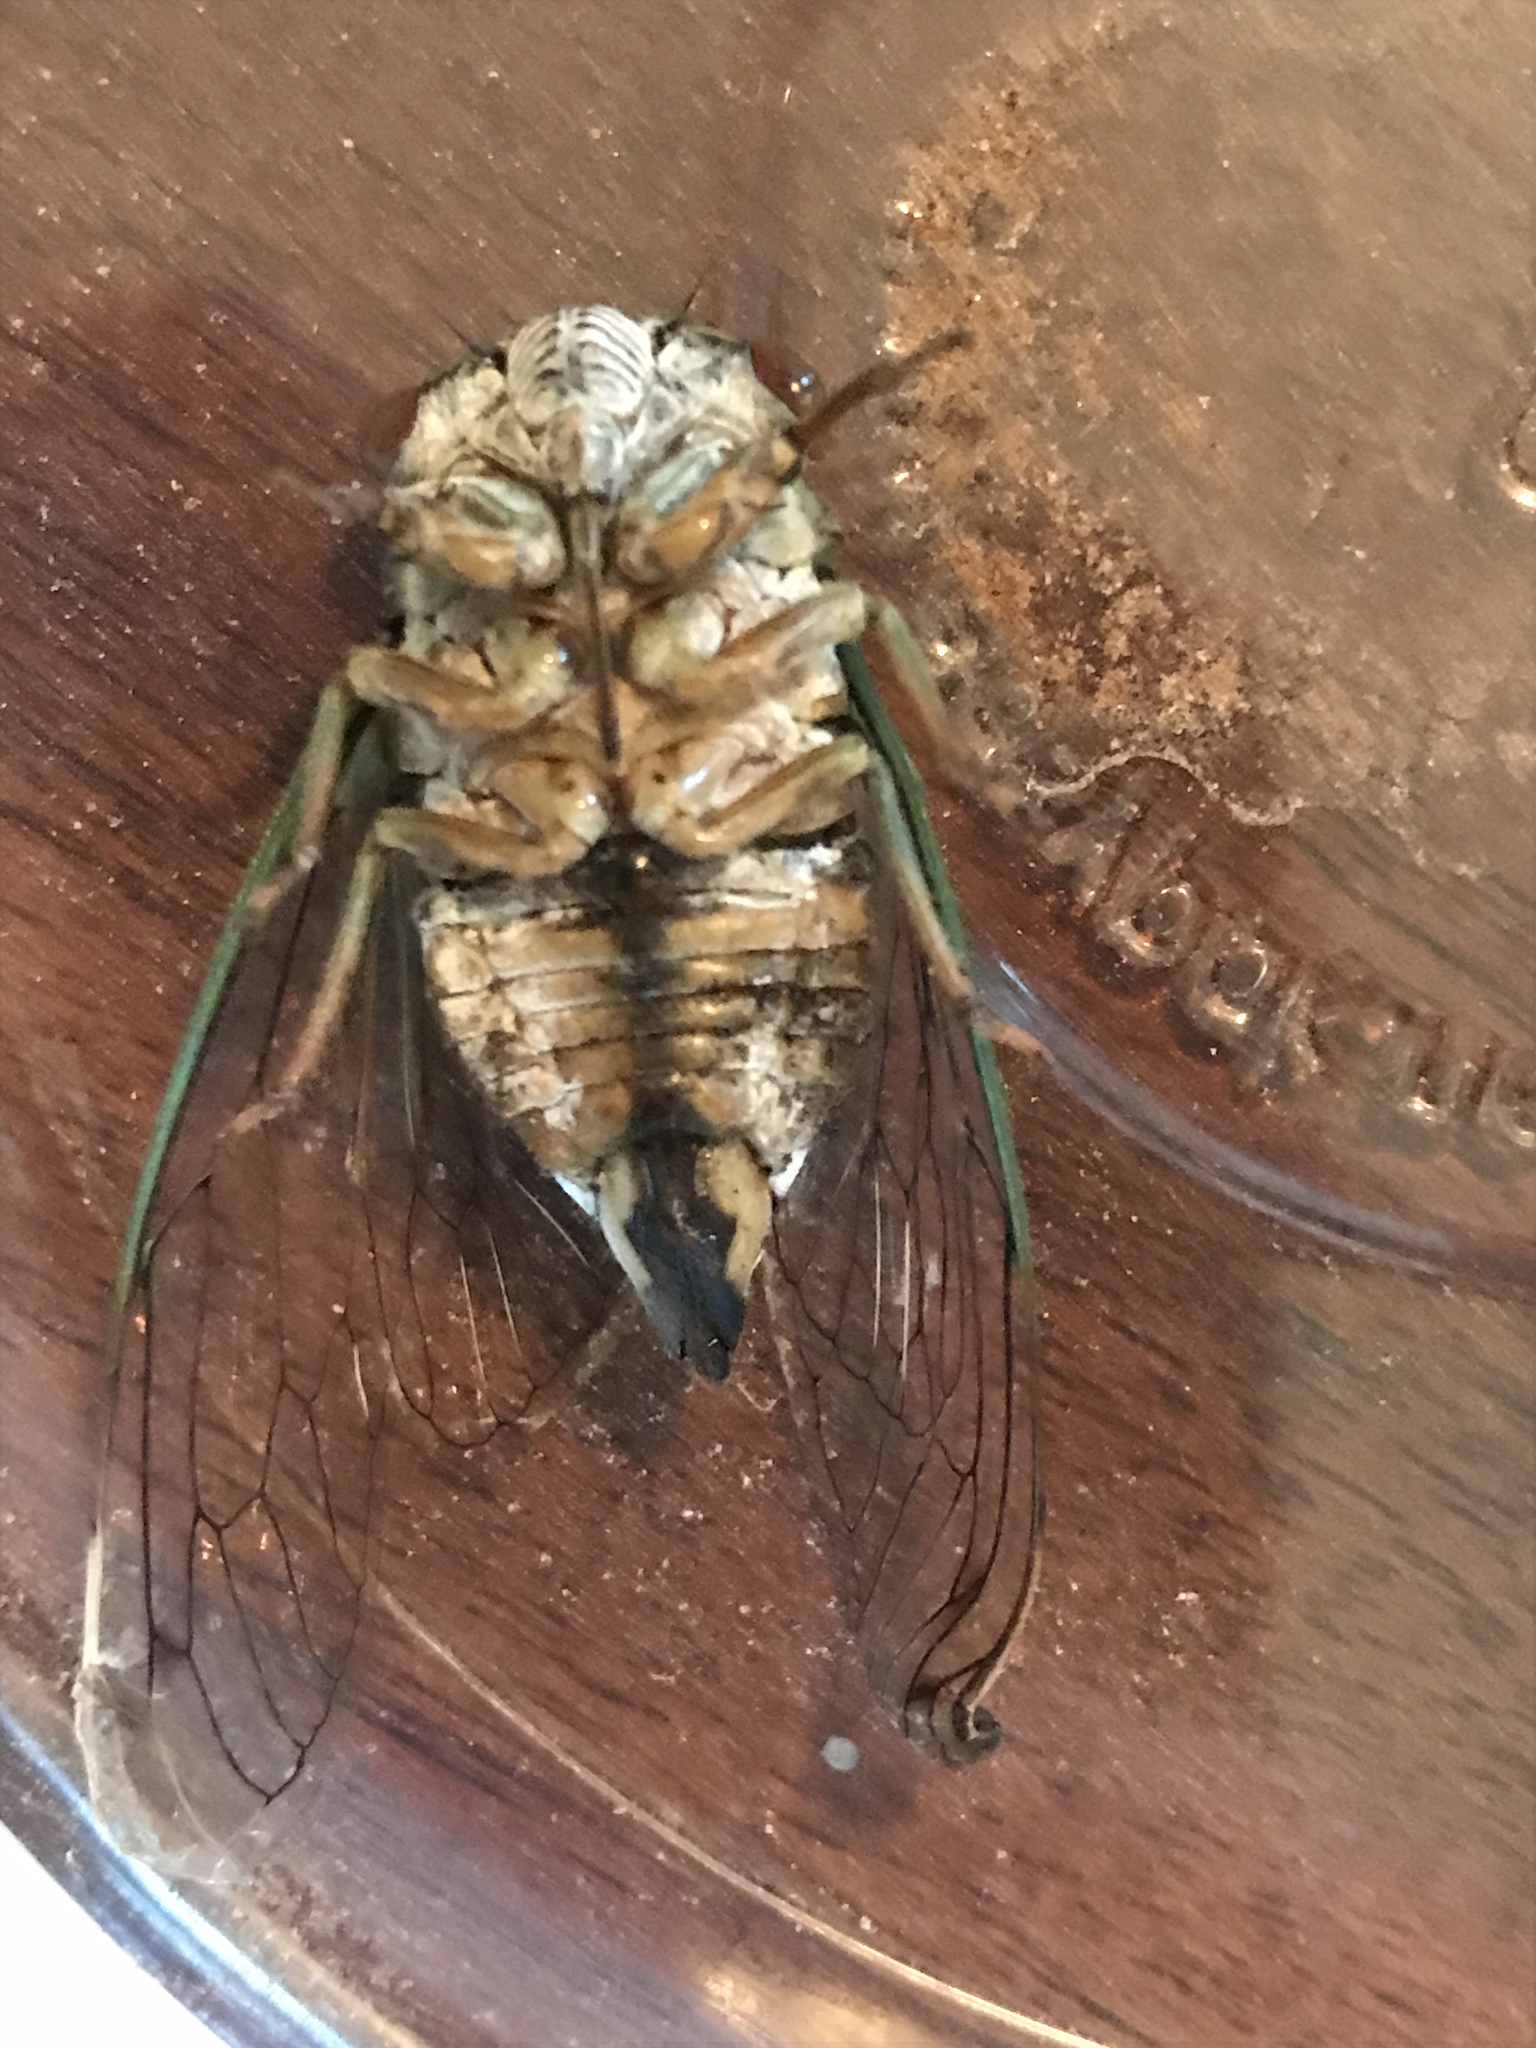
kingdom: Animalia
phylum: Arthropoda
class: Insecta
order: Hemiptera
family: Cicadidae
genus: Neotibicen
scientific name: Neotibicen pruinosus
